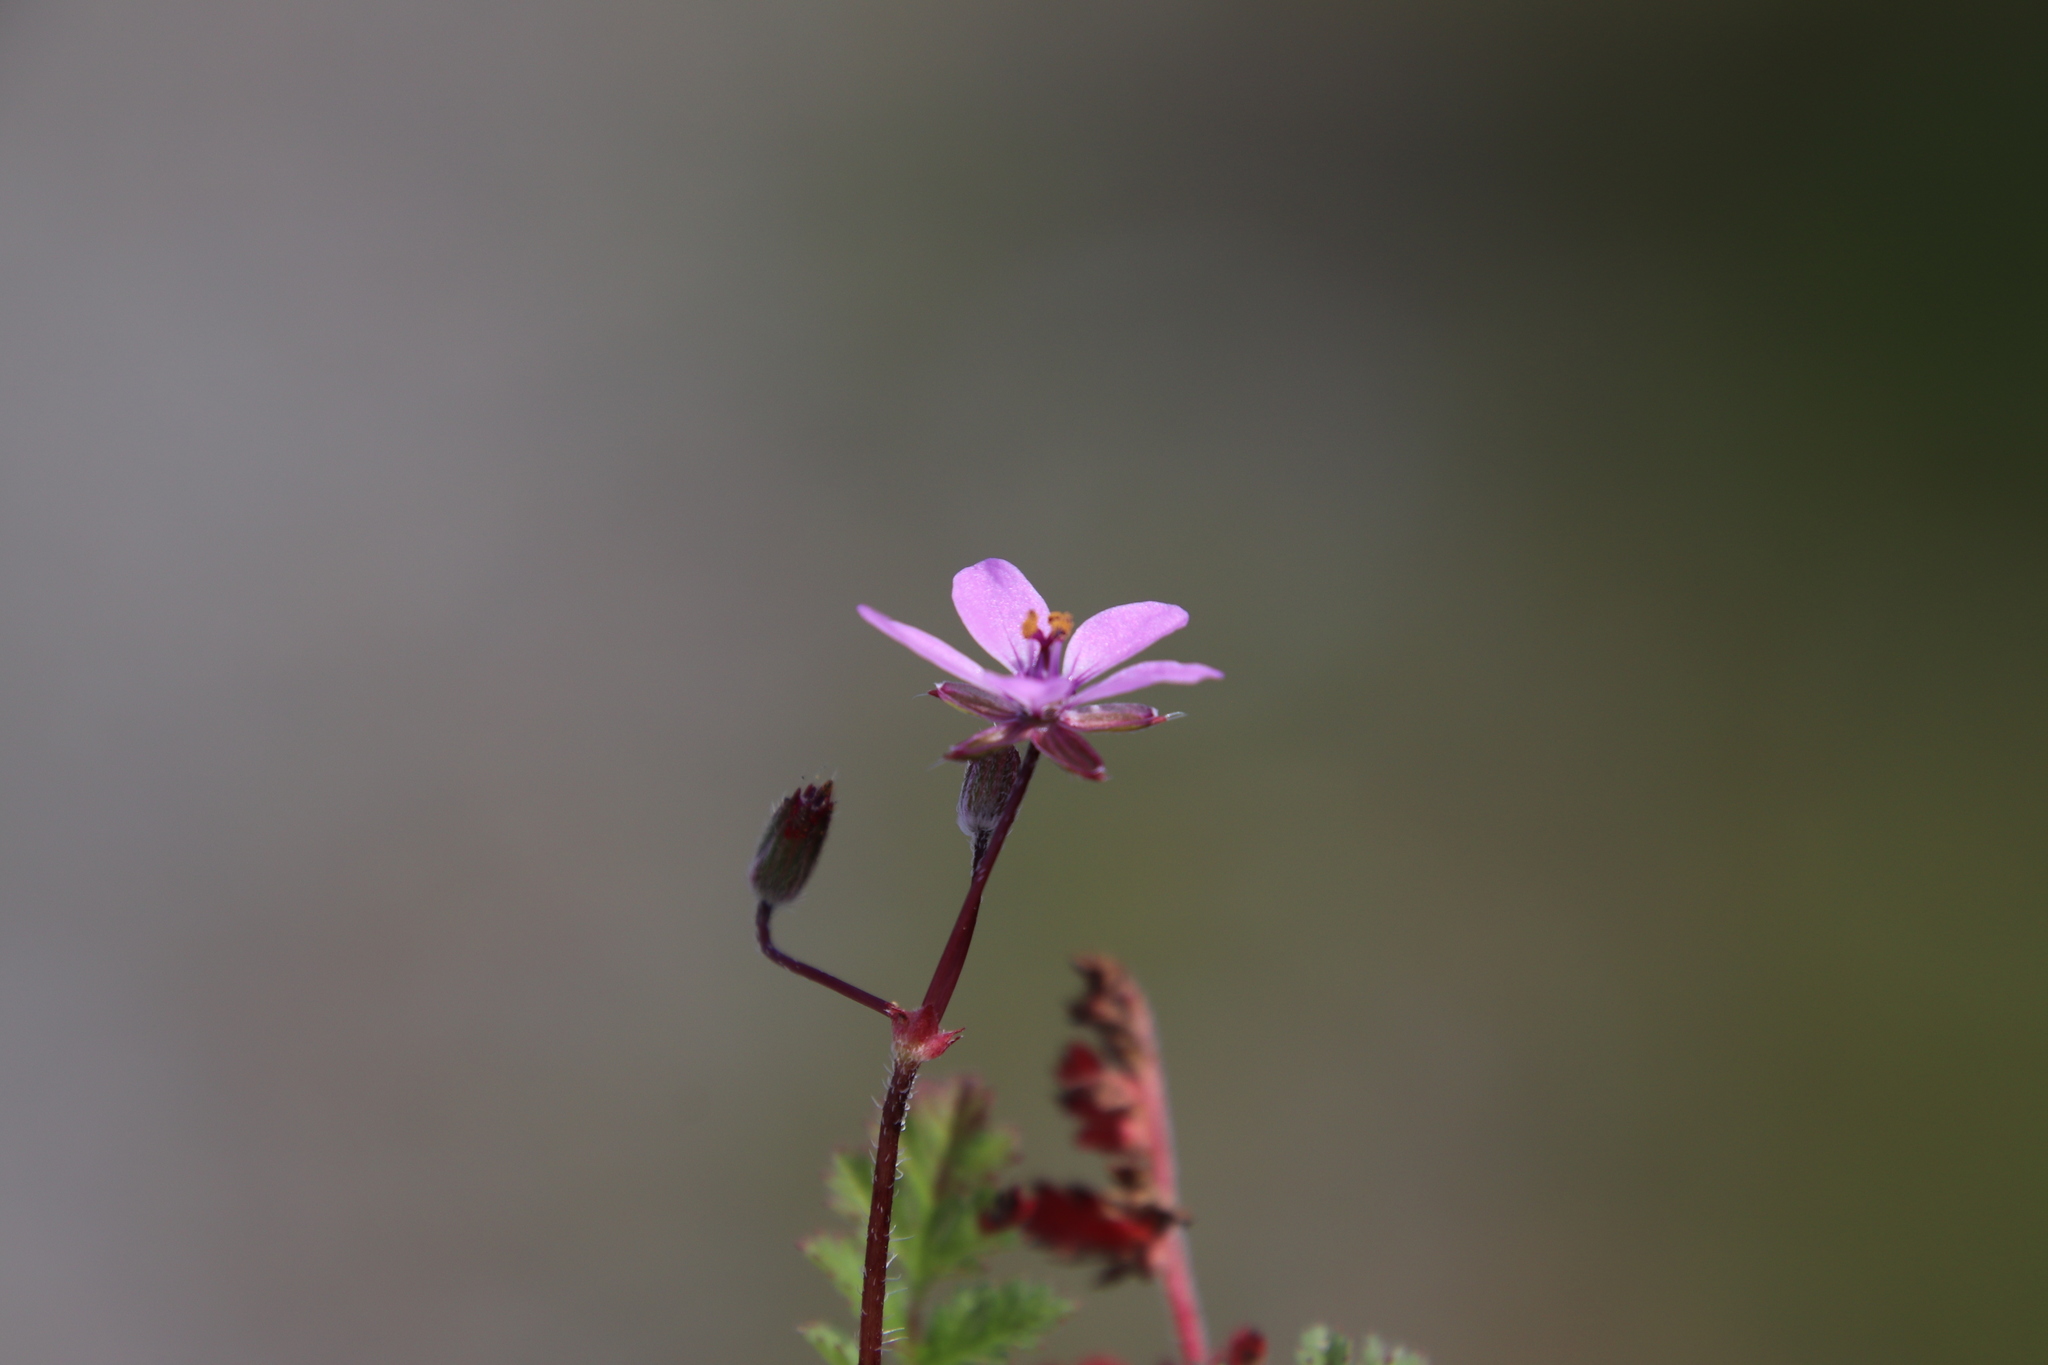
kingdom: Plantae
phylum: Tracheophyta
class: Magnoliopsida
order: Geraniales
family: Geraniaceae
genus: Erodium
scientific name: Erodium cicutarium
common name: Common stork's-bill
